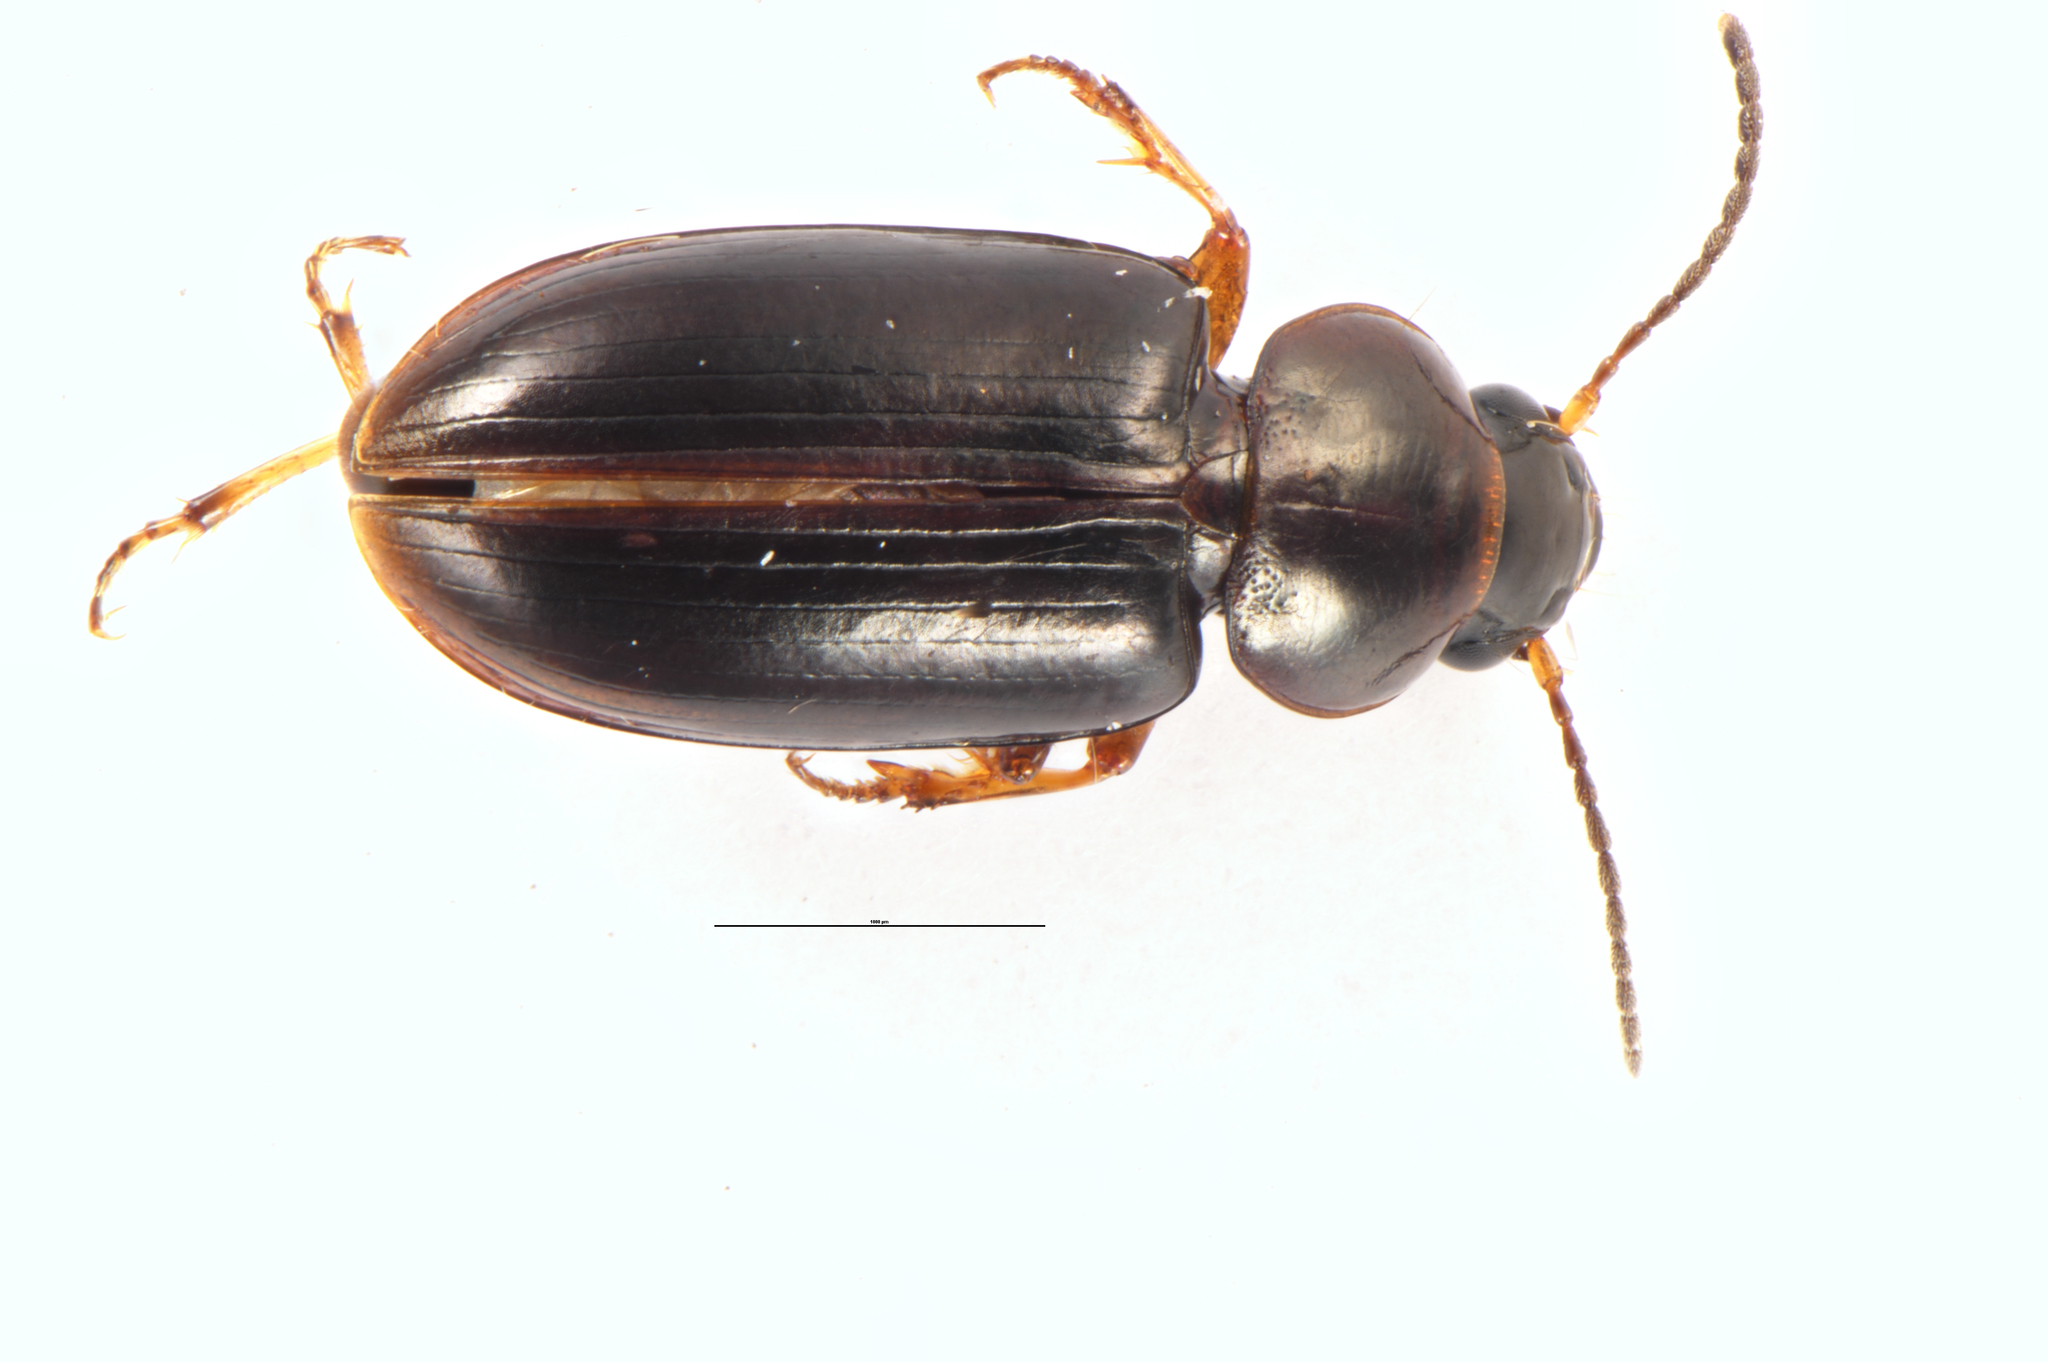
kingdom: Animalia
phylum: Arthropoda
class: Insecta
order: Coleoptera
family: Carabidae
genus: Haplanister
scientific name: Haplanister crypticus
